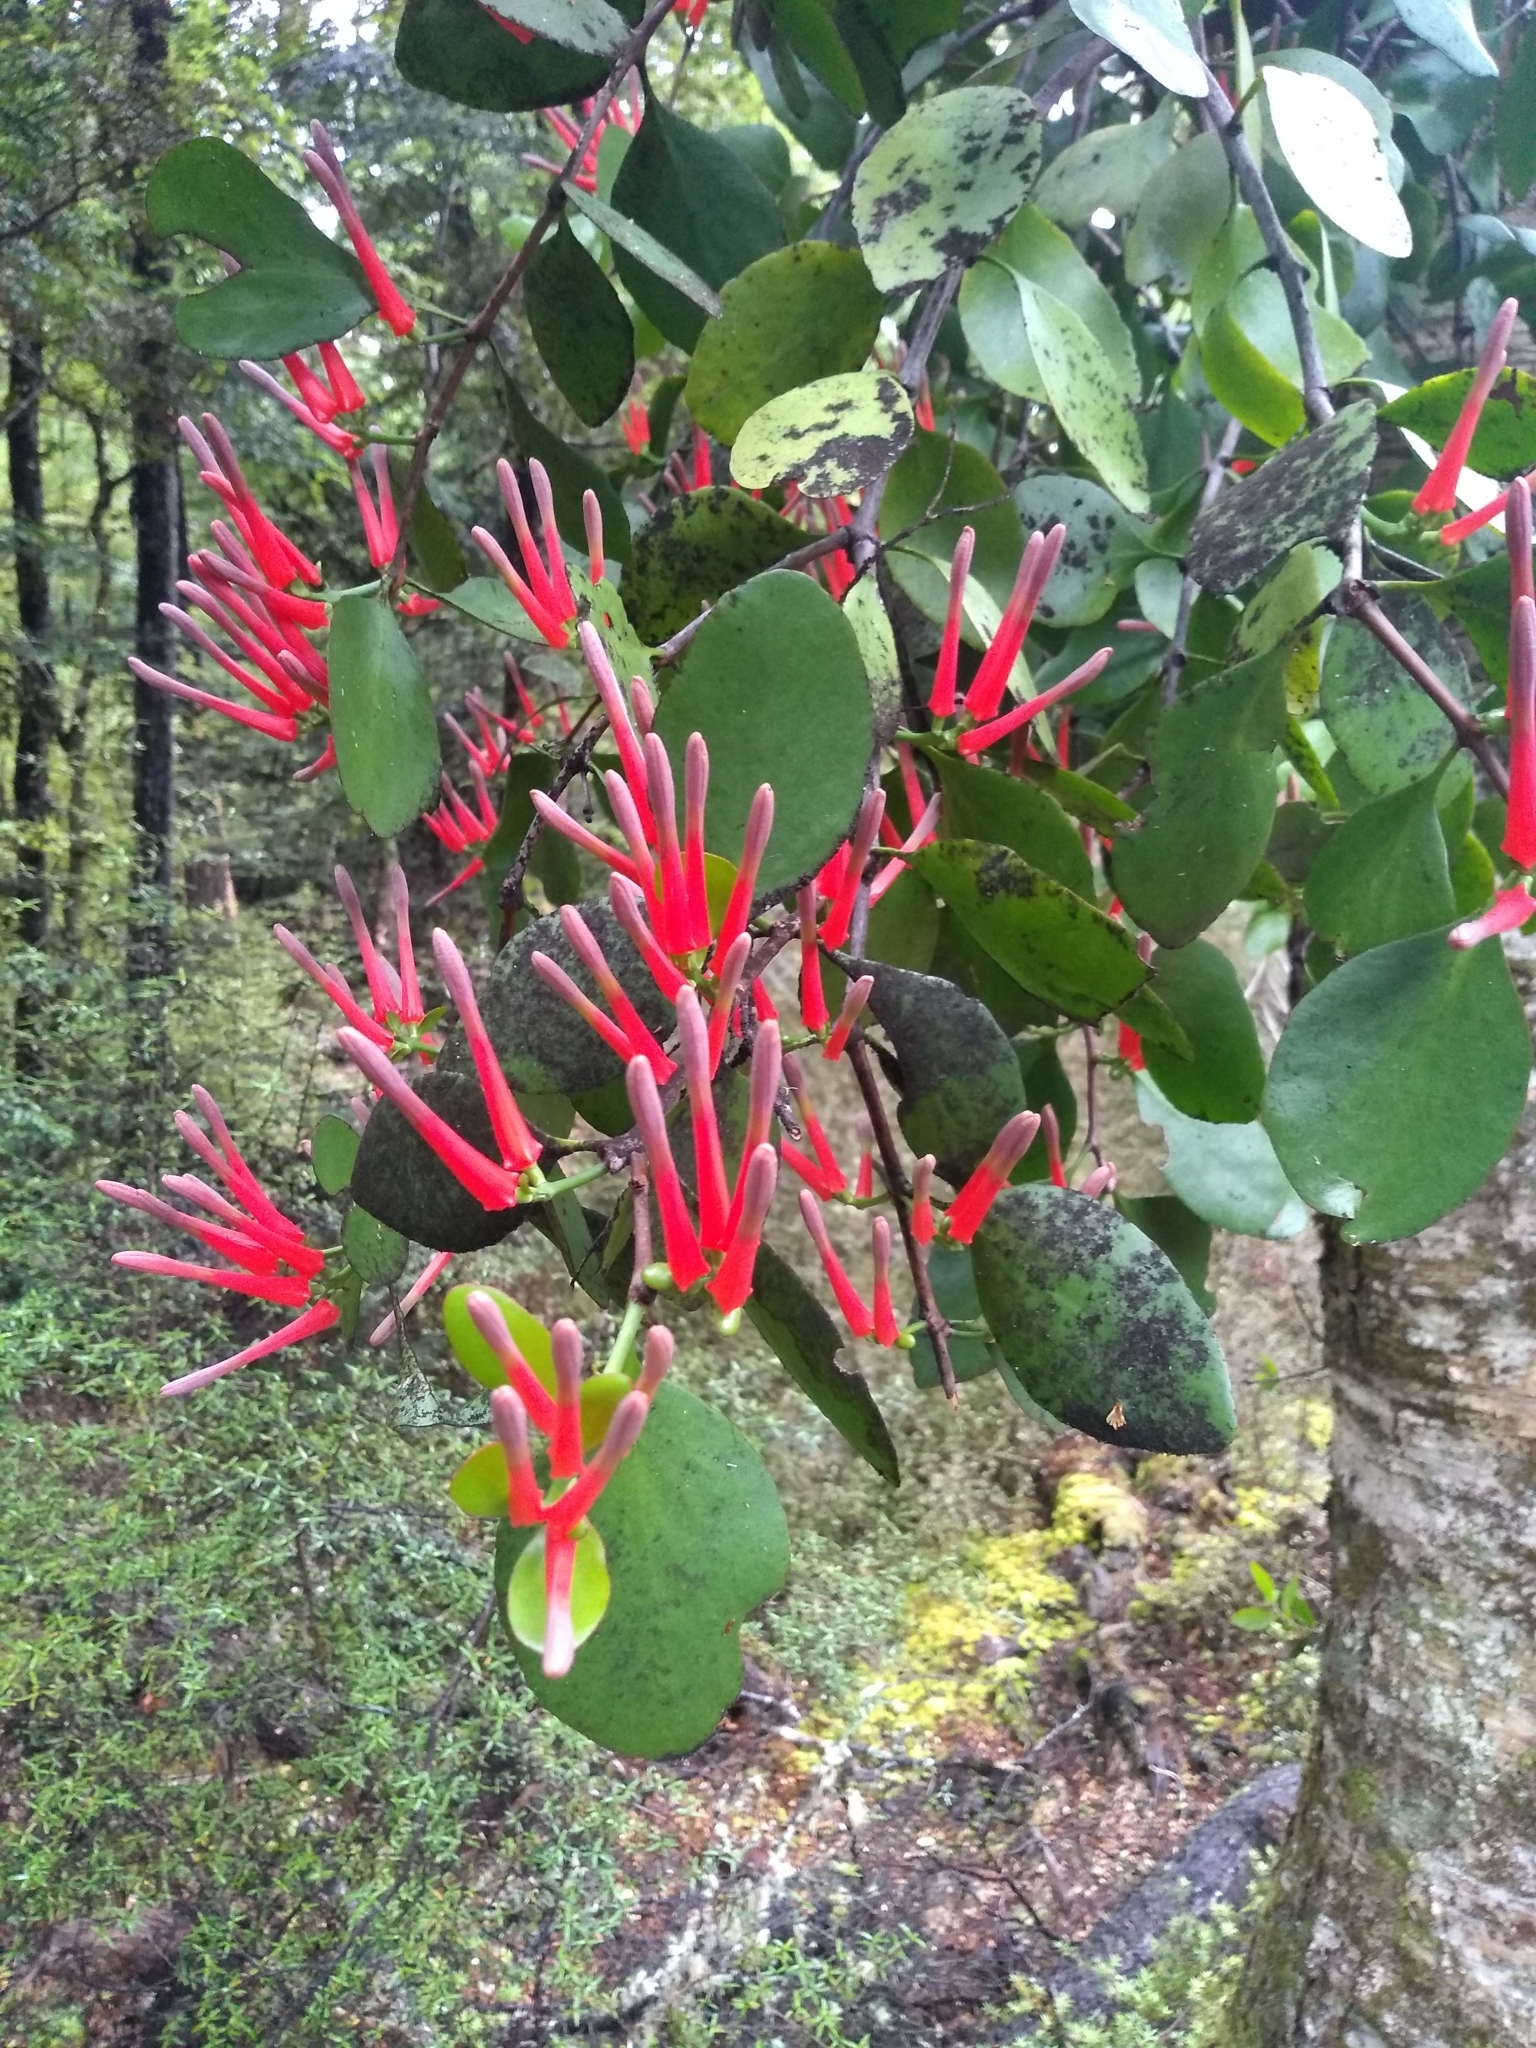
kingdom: Plantae
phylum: Tracheophyta
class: Magnoliopsida
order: Santalales
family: Loranthaceae
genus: Peraxilla
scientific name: Peraxilla colensoi
